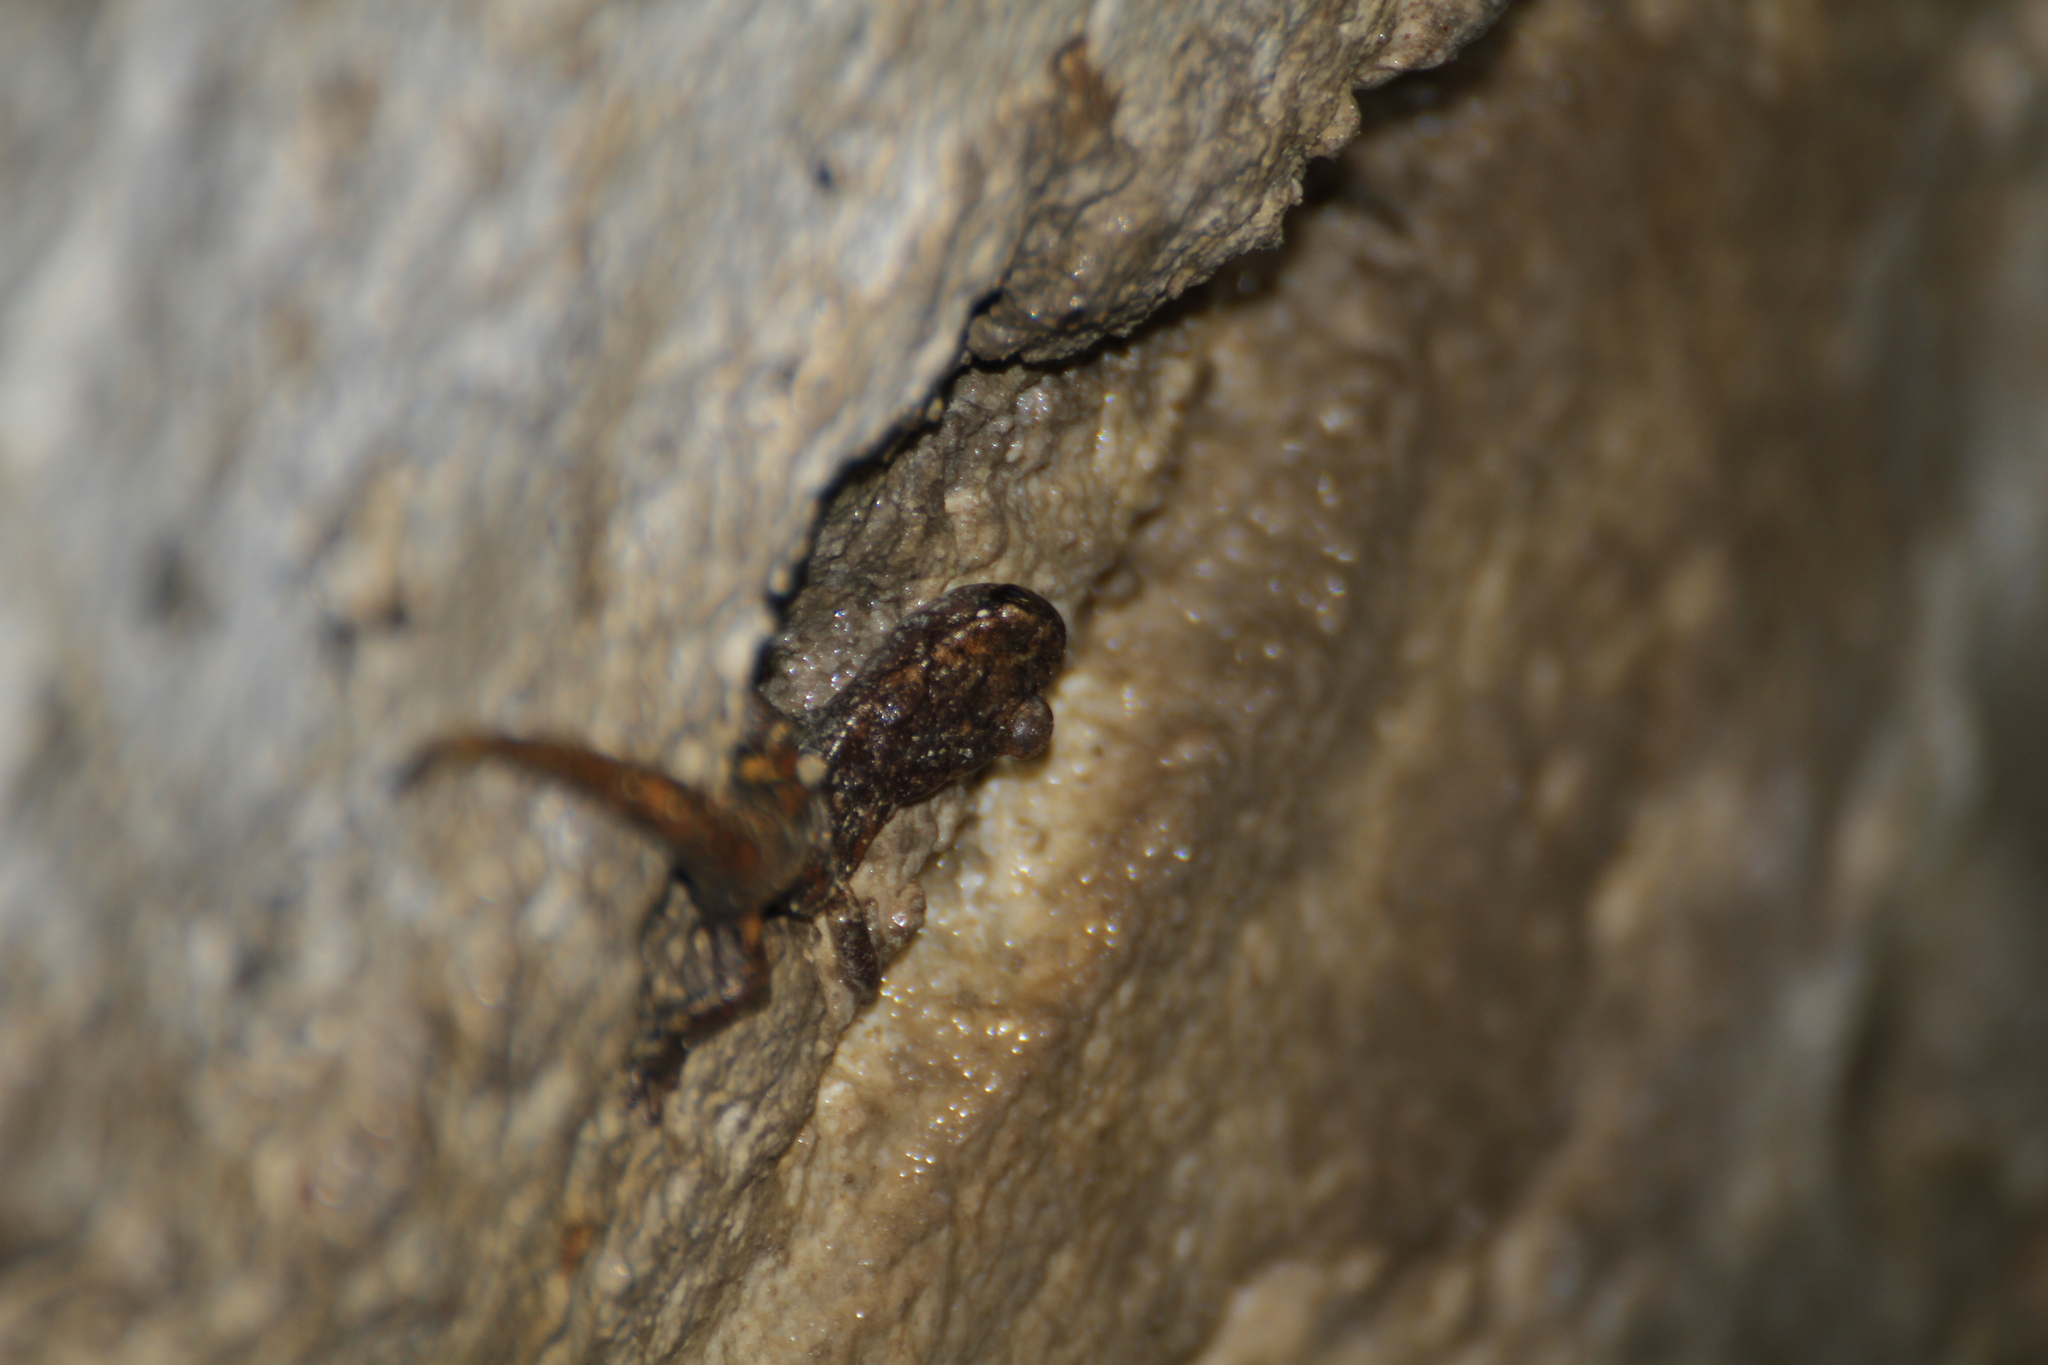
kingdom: Animalia
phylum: Chordata
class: Amphibia
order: Caudata
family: Plethodontidae
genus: Speleomantes
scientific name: Speleomantes strinatii
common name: French cave salamander
